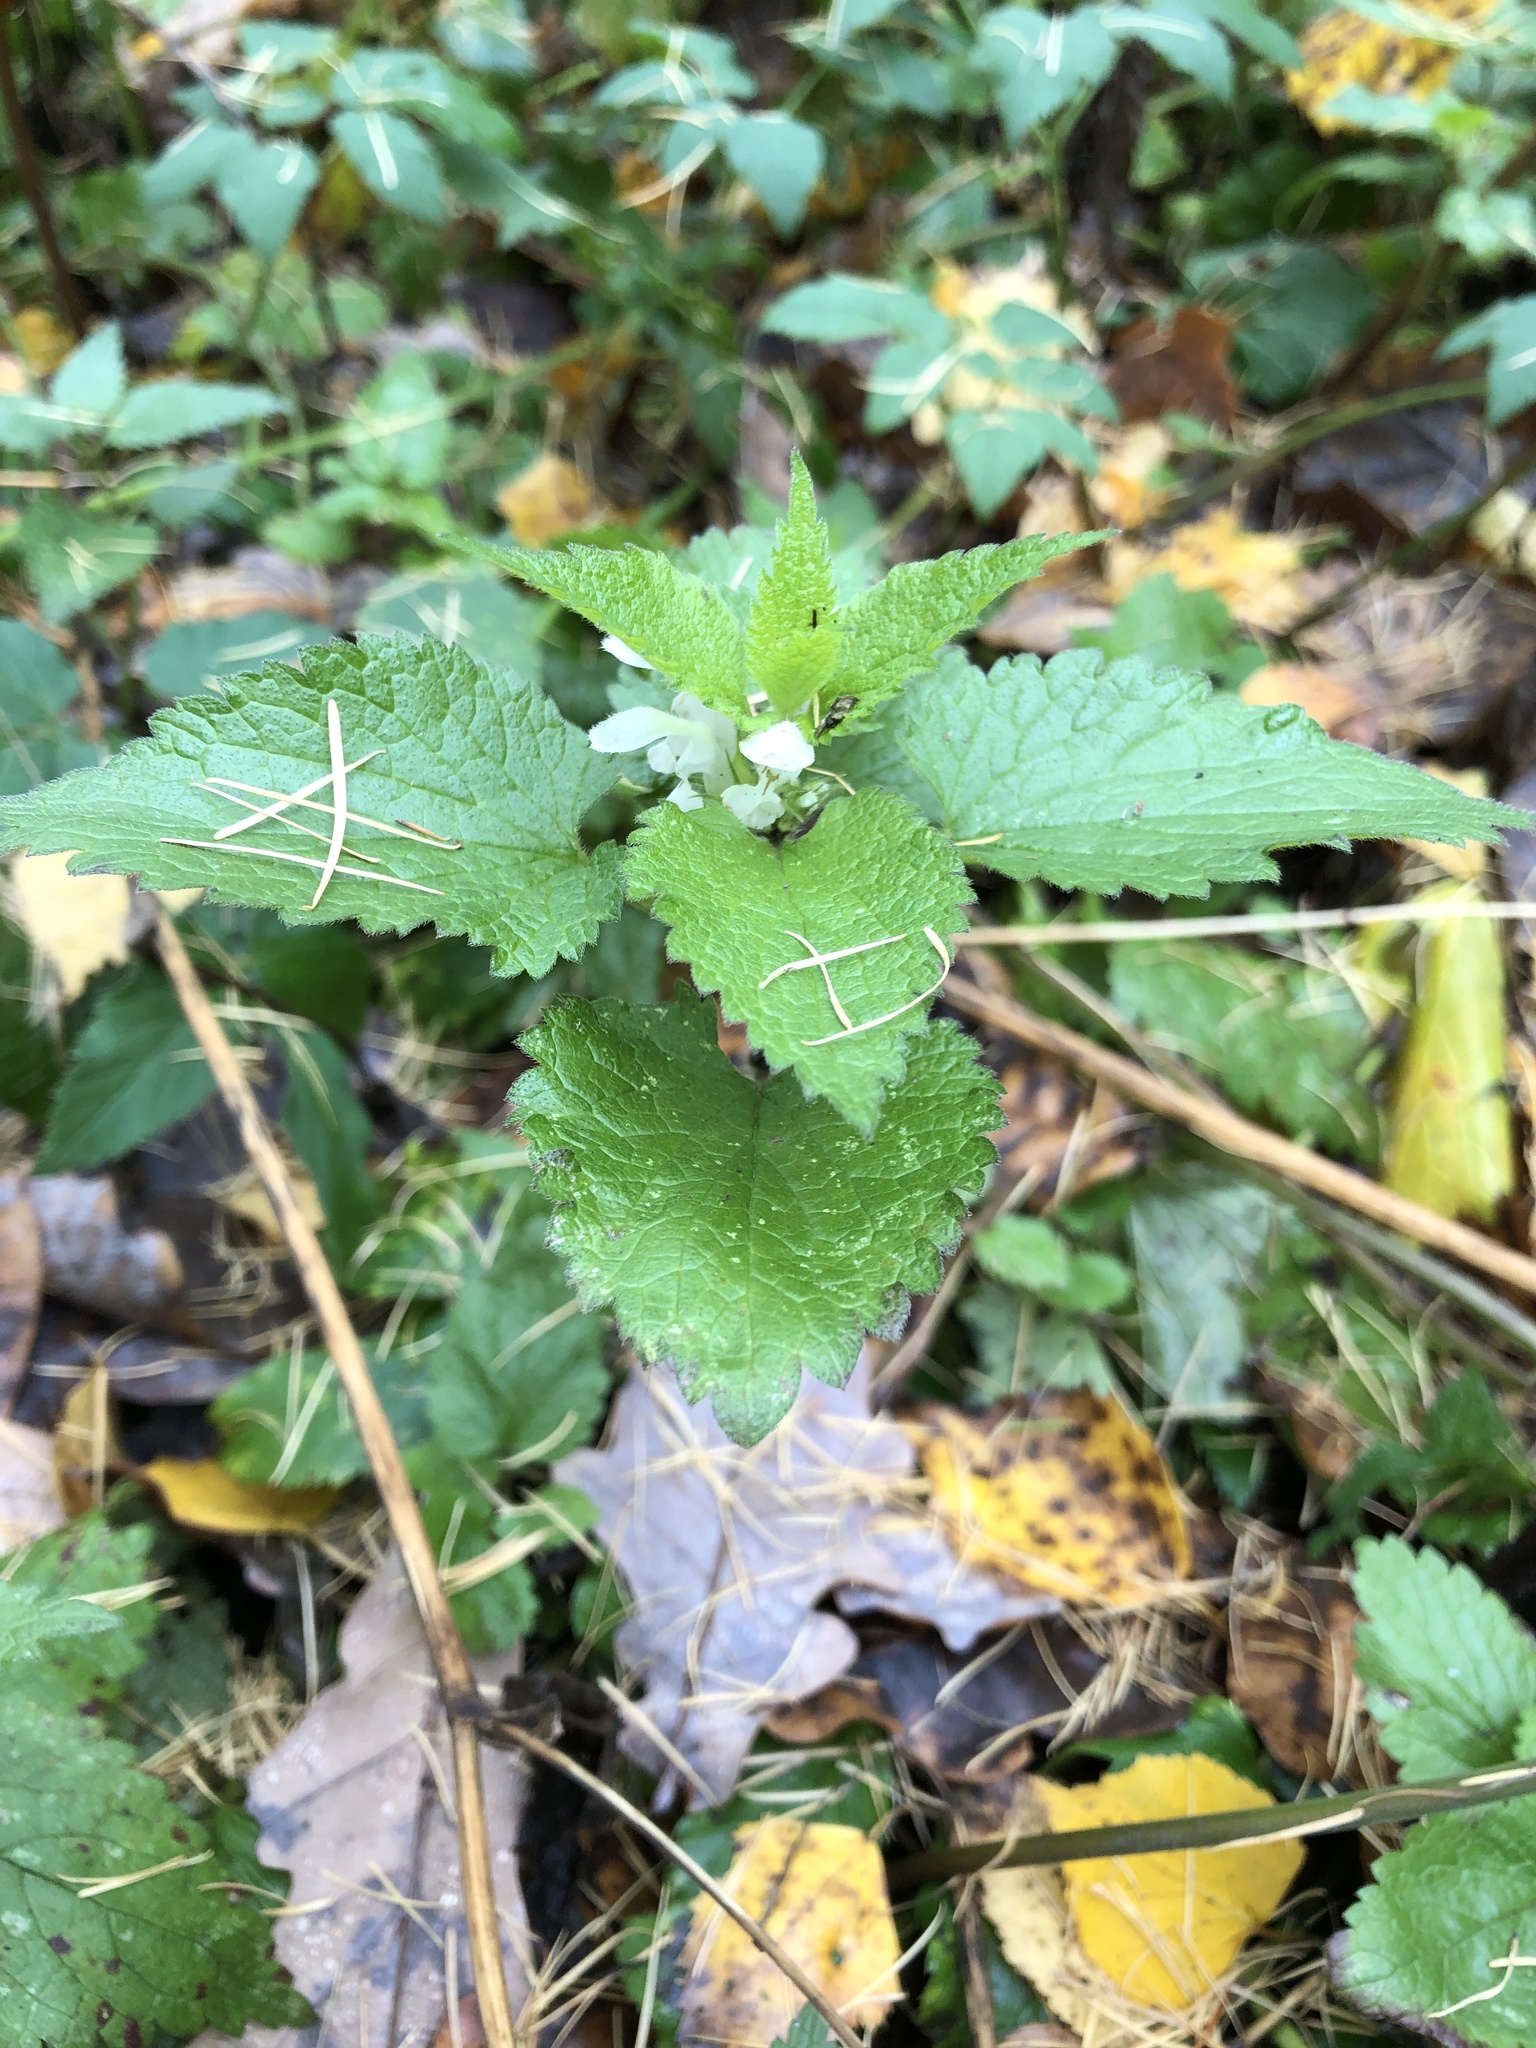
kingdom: Plantae
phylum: Tracheophyta
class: Magnoliopsida
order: Lamiales
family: Lamiaceae
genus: Lamium
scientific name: Lamium album
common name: White dead-nettle
